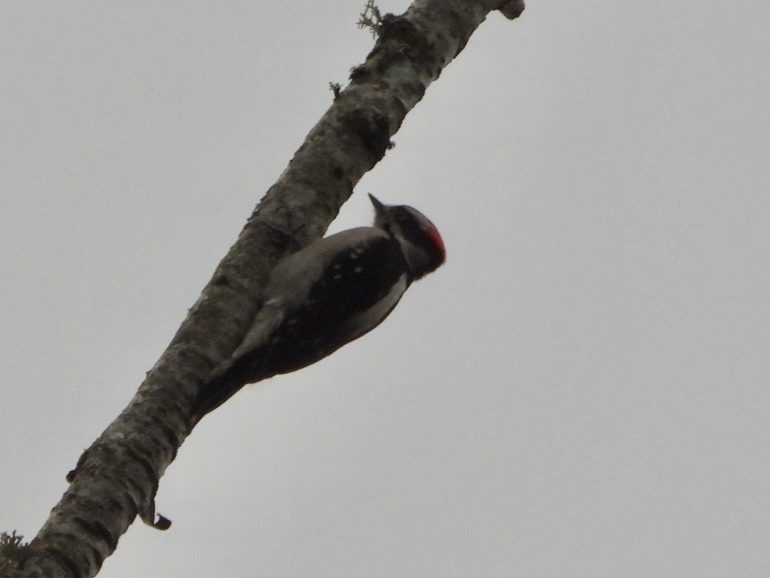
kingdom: Animalia
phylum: Chordata
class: Aves
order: Piciformes
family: Picidae
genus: Dryobates
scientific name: Dryobates pubescens
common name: Downy woodpecker
